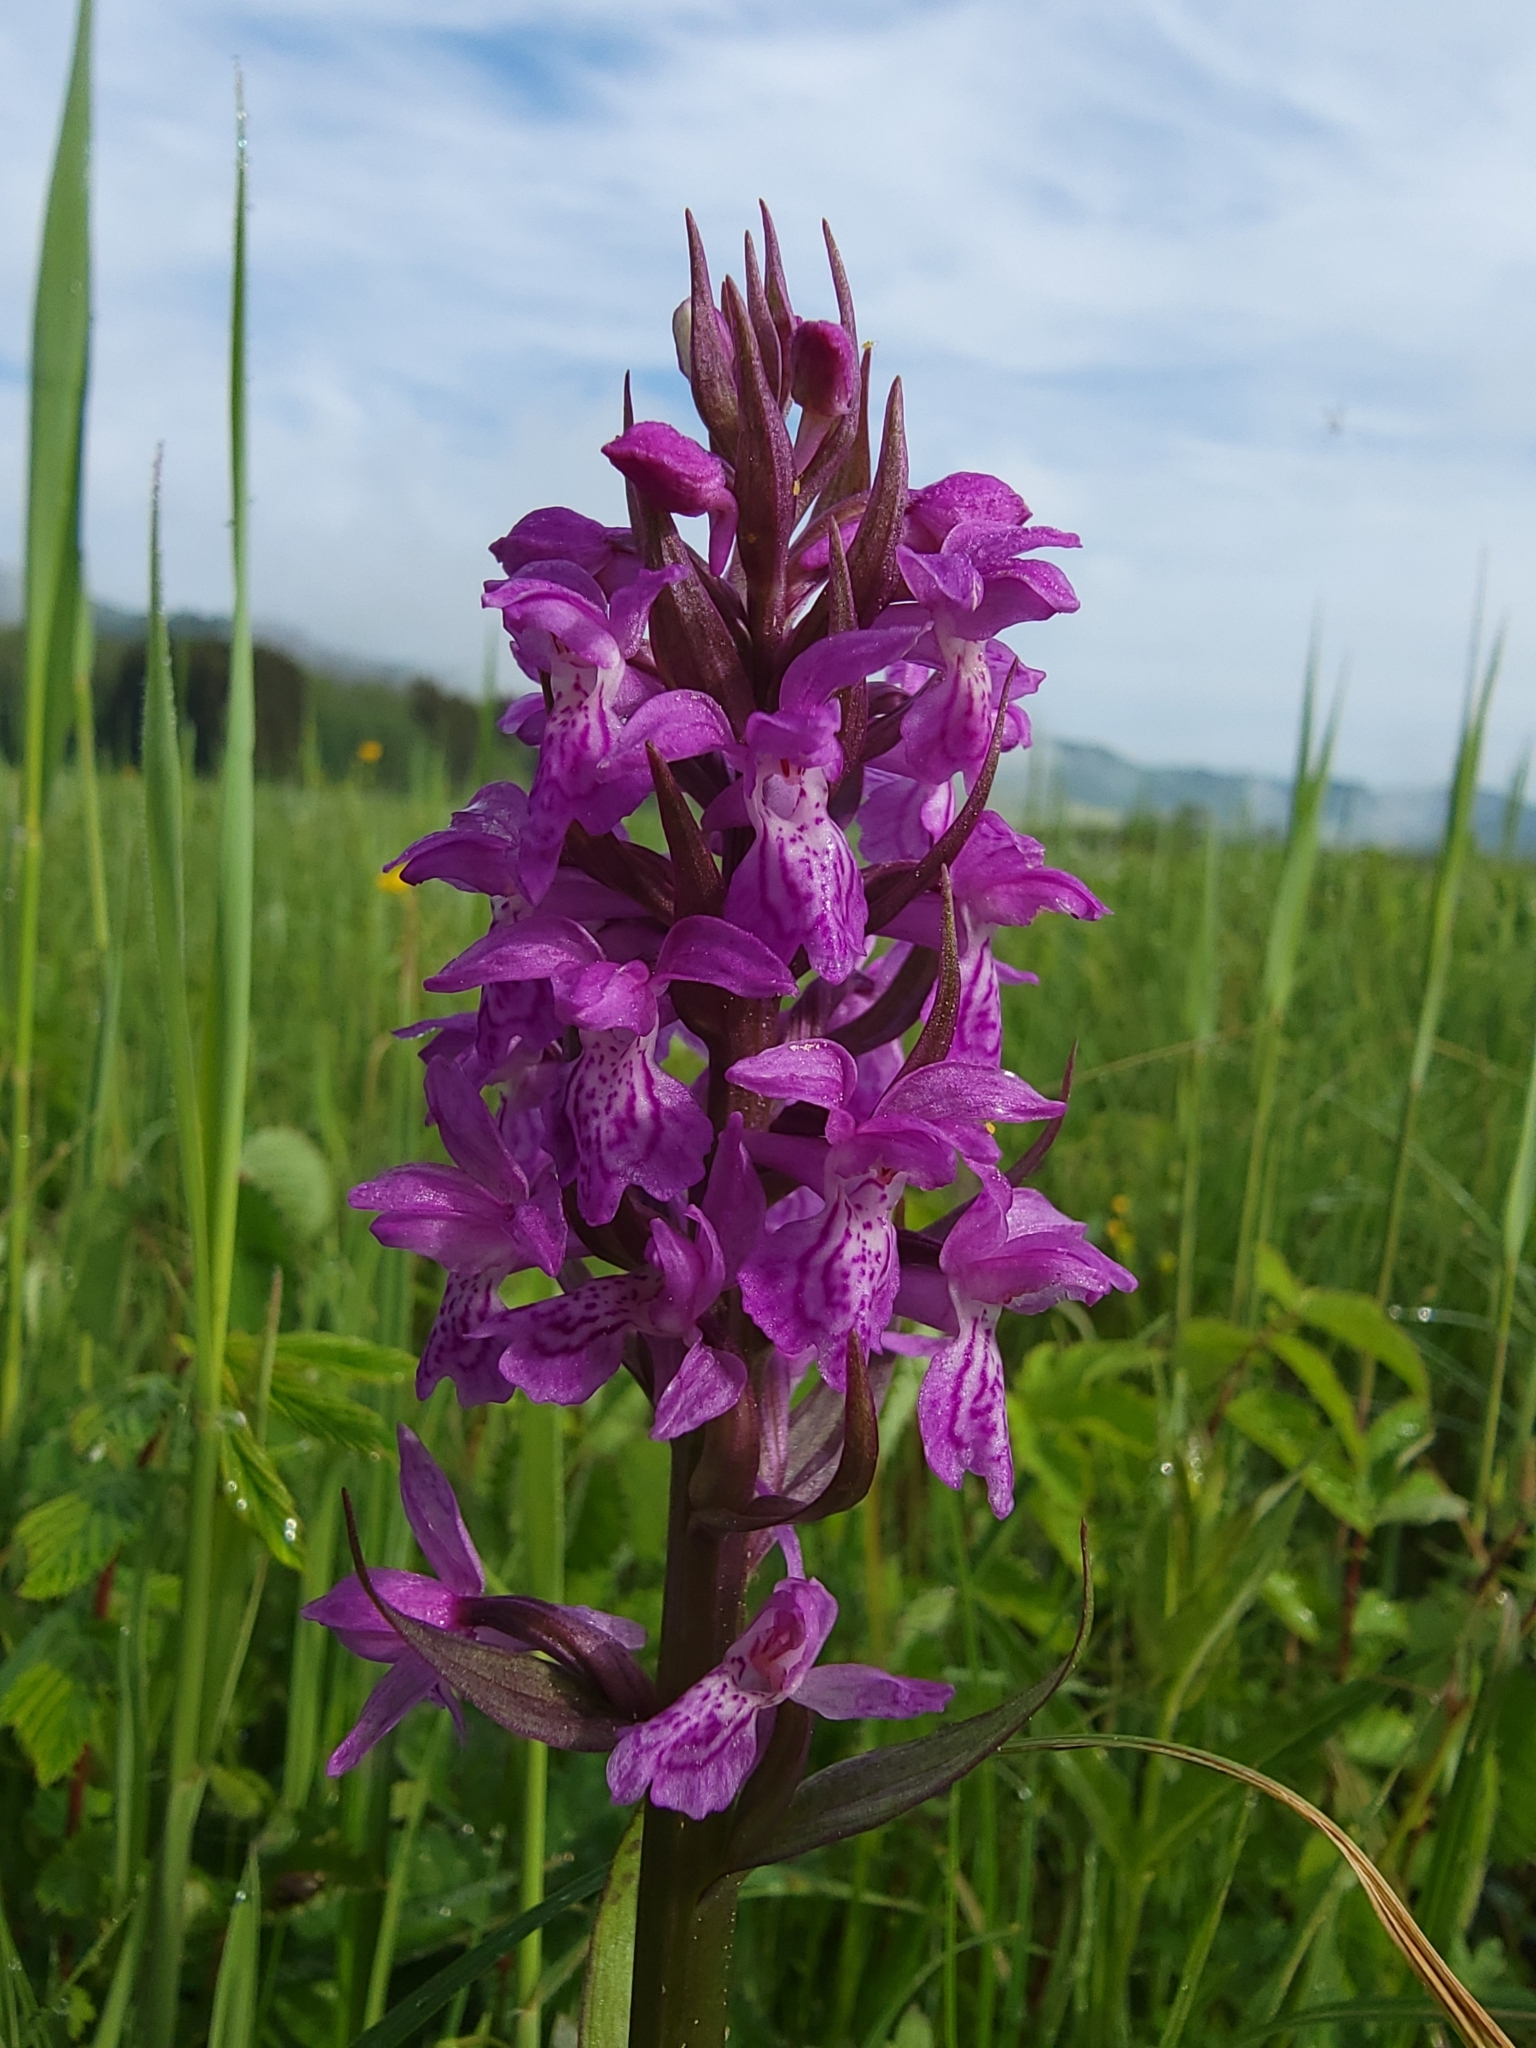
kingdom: Plantae
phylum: Tracheophyta
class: Liliopsida
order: Asparagales
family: Orchidaceae
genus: Dactylorhiza
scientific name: Dactylorhiza majalis
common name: Marsh orchid
